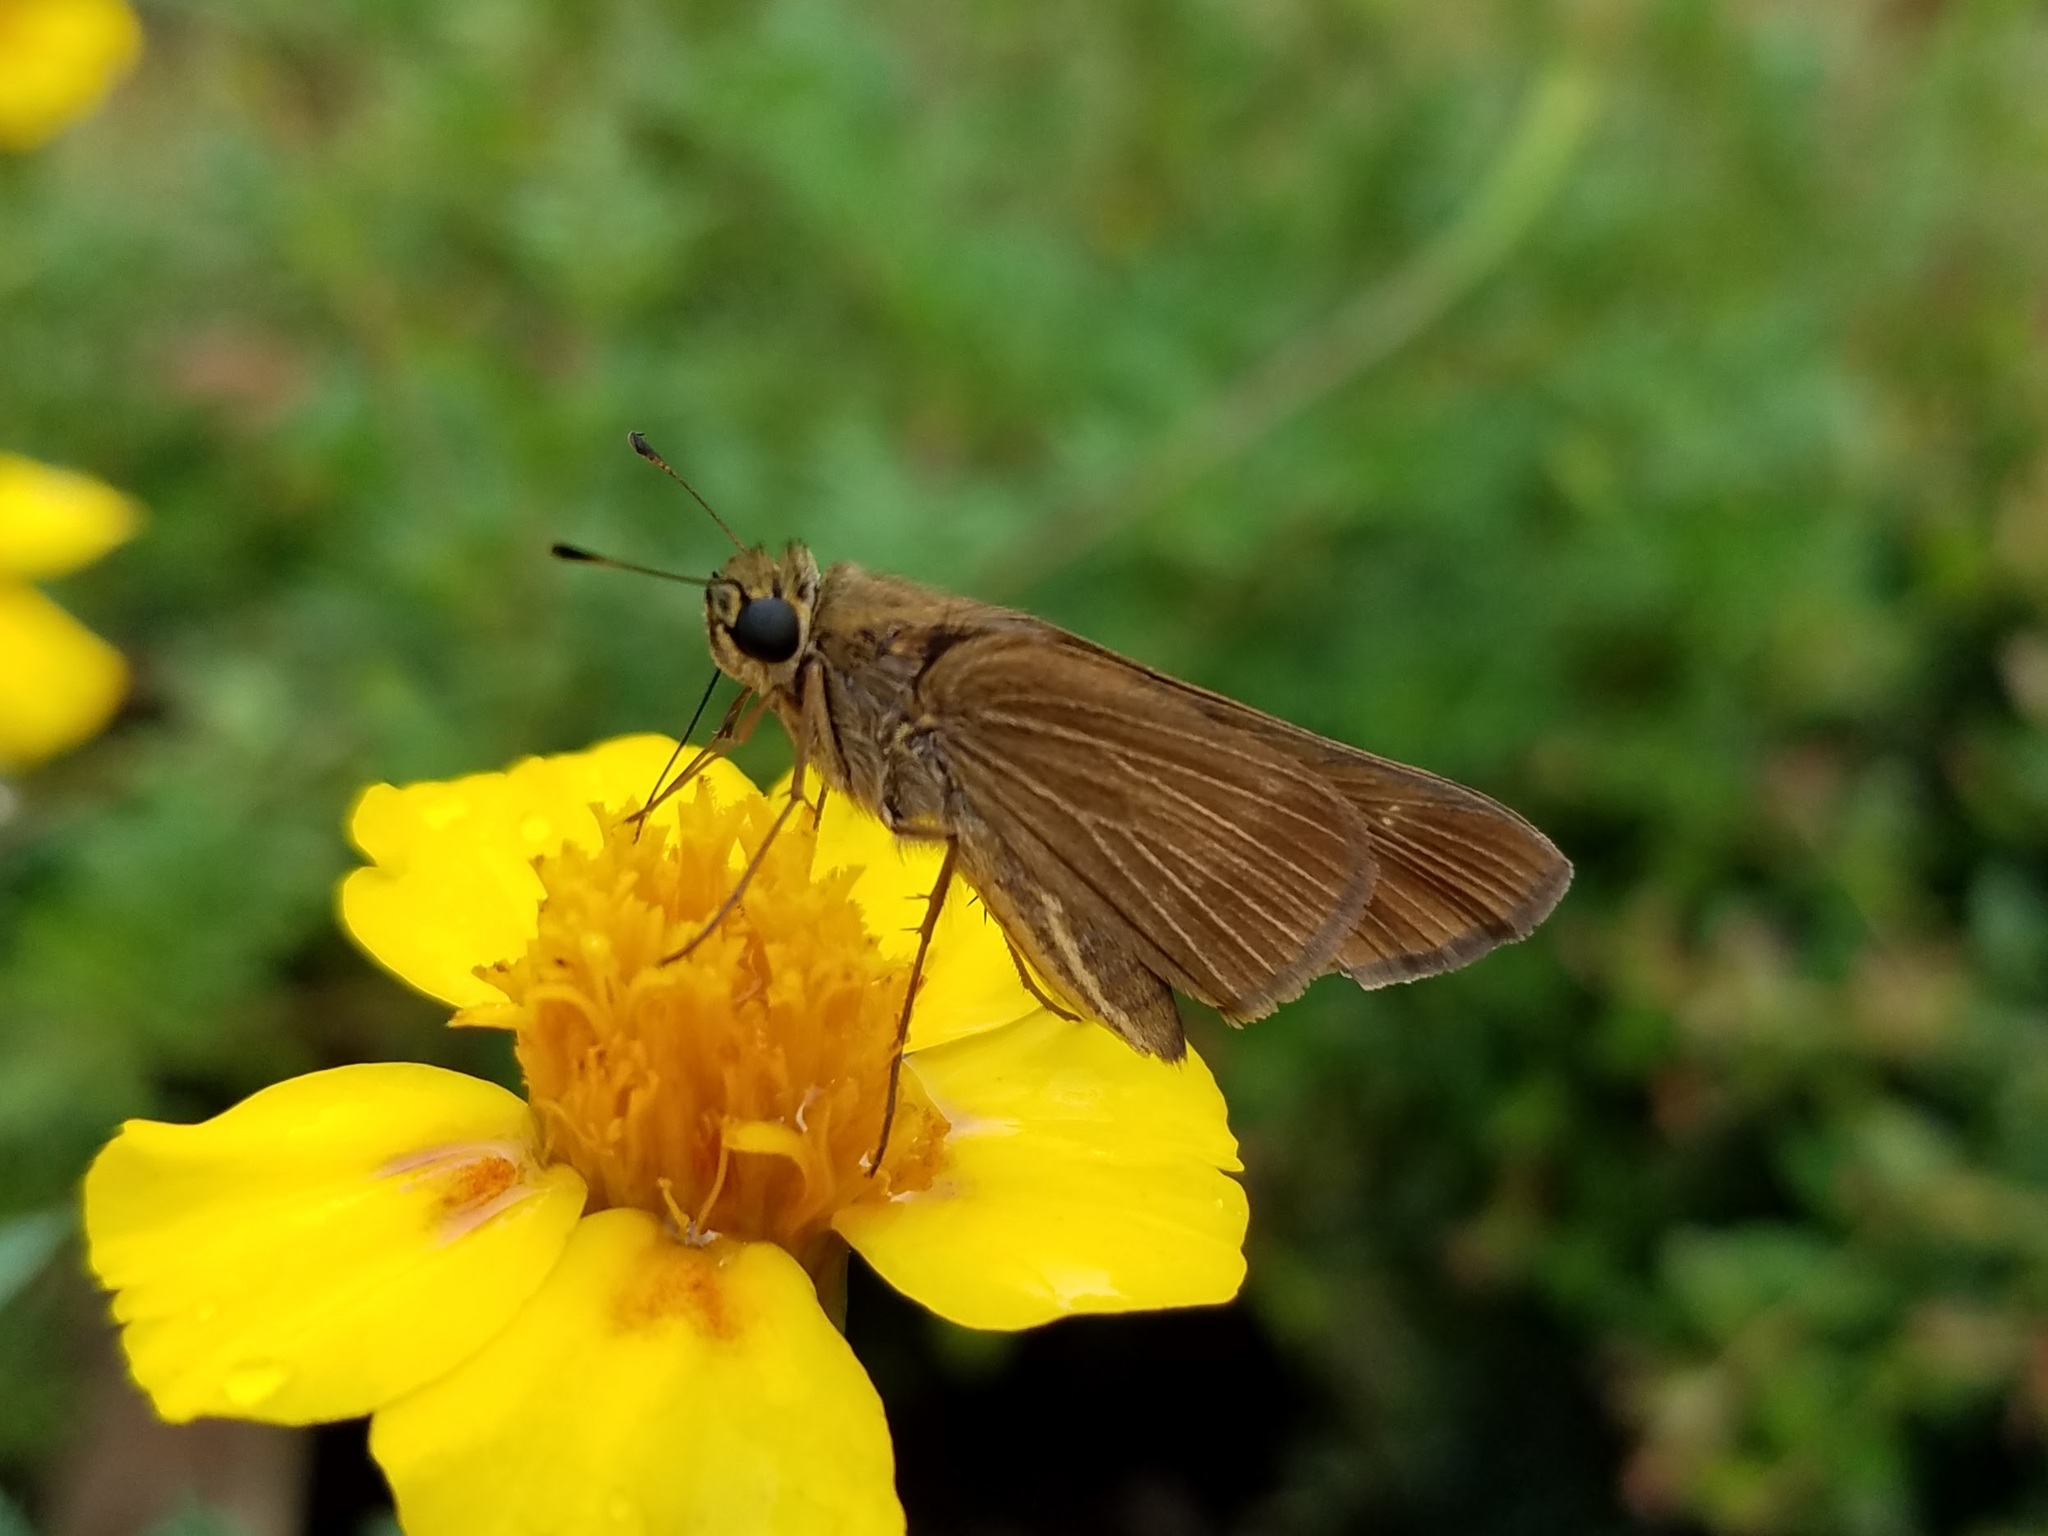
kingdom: Animalia
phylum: Arthropoda
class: Insecta
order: Lepidoptera
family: Hesperiidae
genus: Panoquina
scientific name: Panoquina ocola
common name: Ocola skipper
